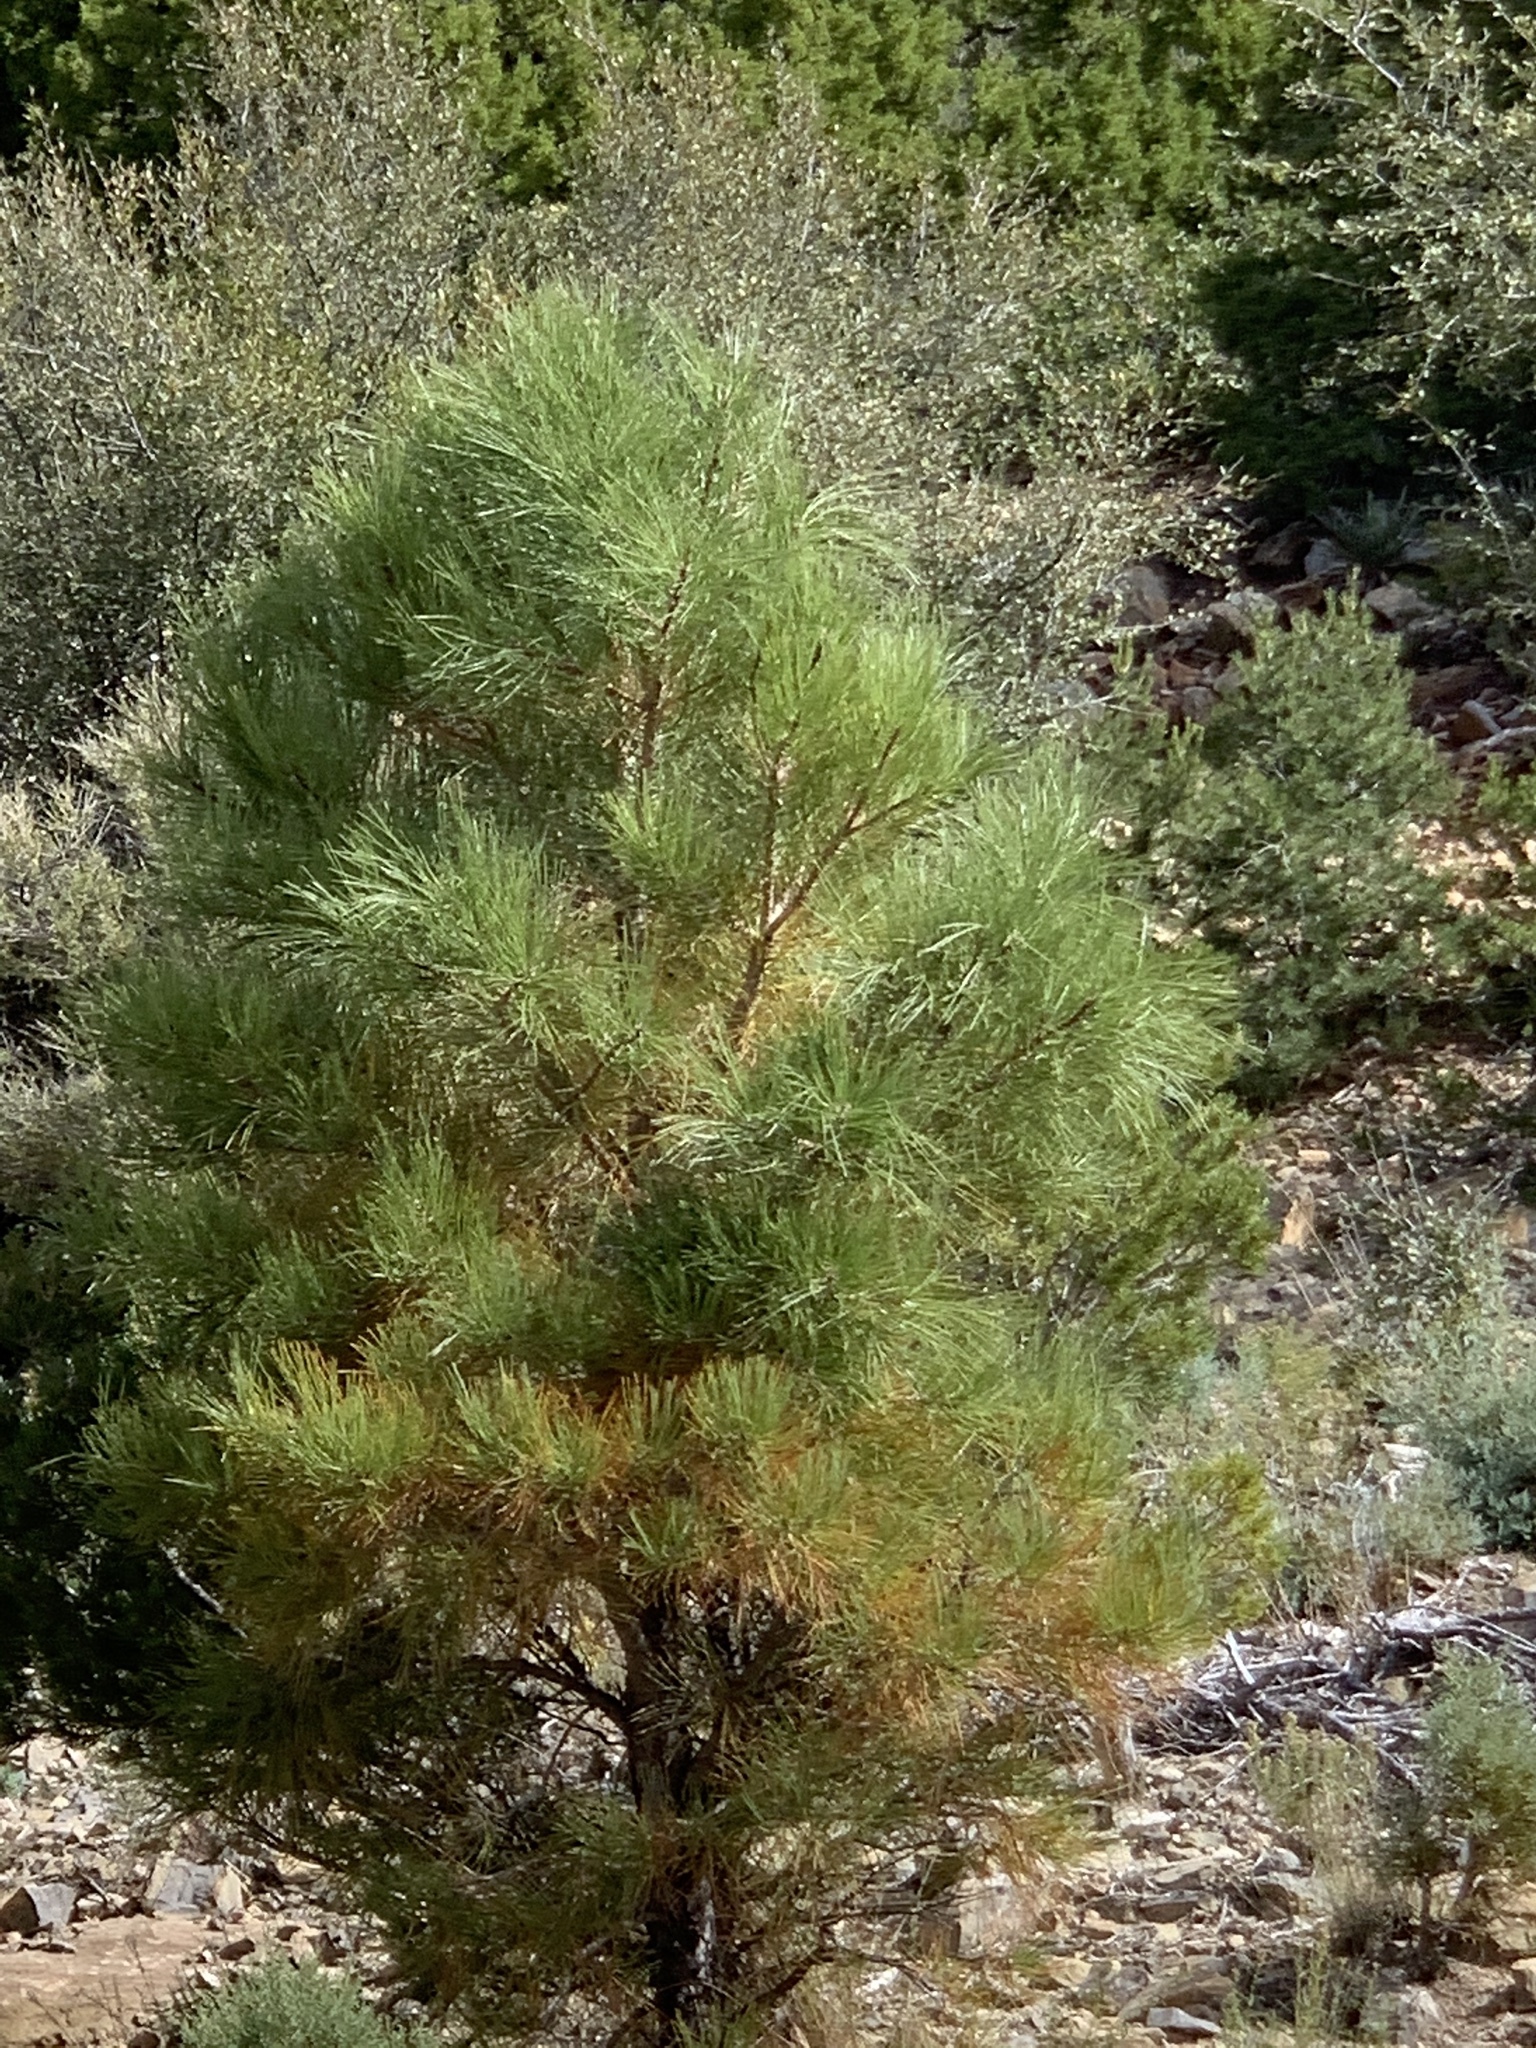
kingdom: Plantae
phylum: Tracheophyta
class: Pinopsida
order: Pinales
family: Pinaceae
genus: Pinus
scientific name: Pinus ponderosa
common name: Western yellow-pine
